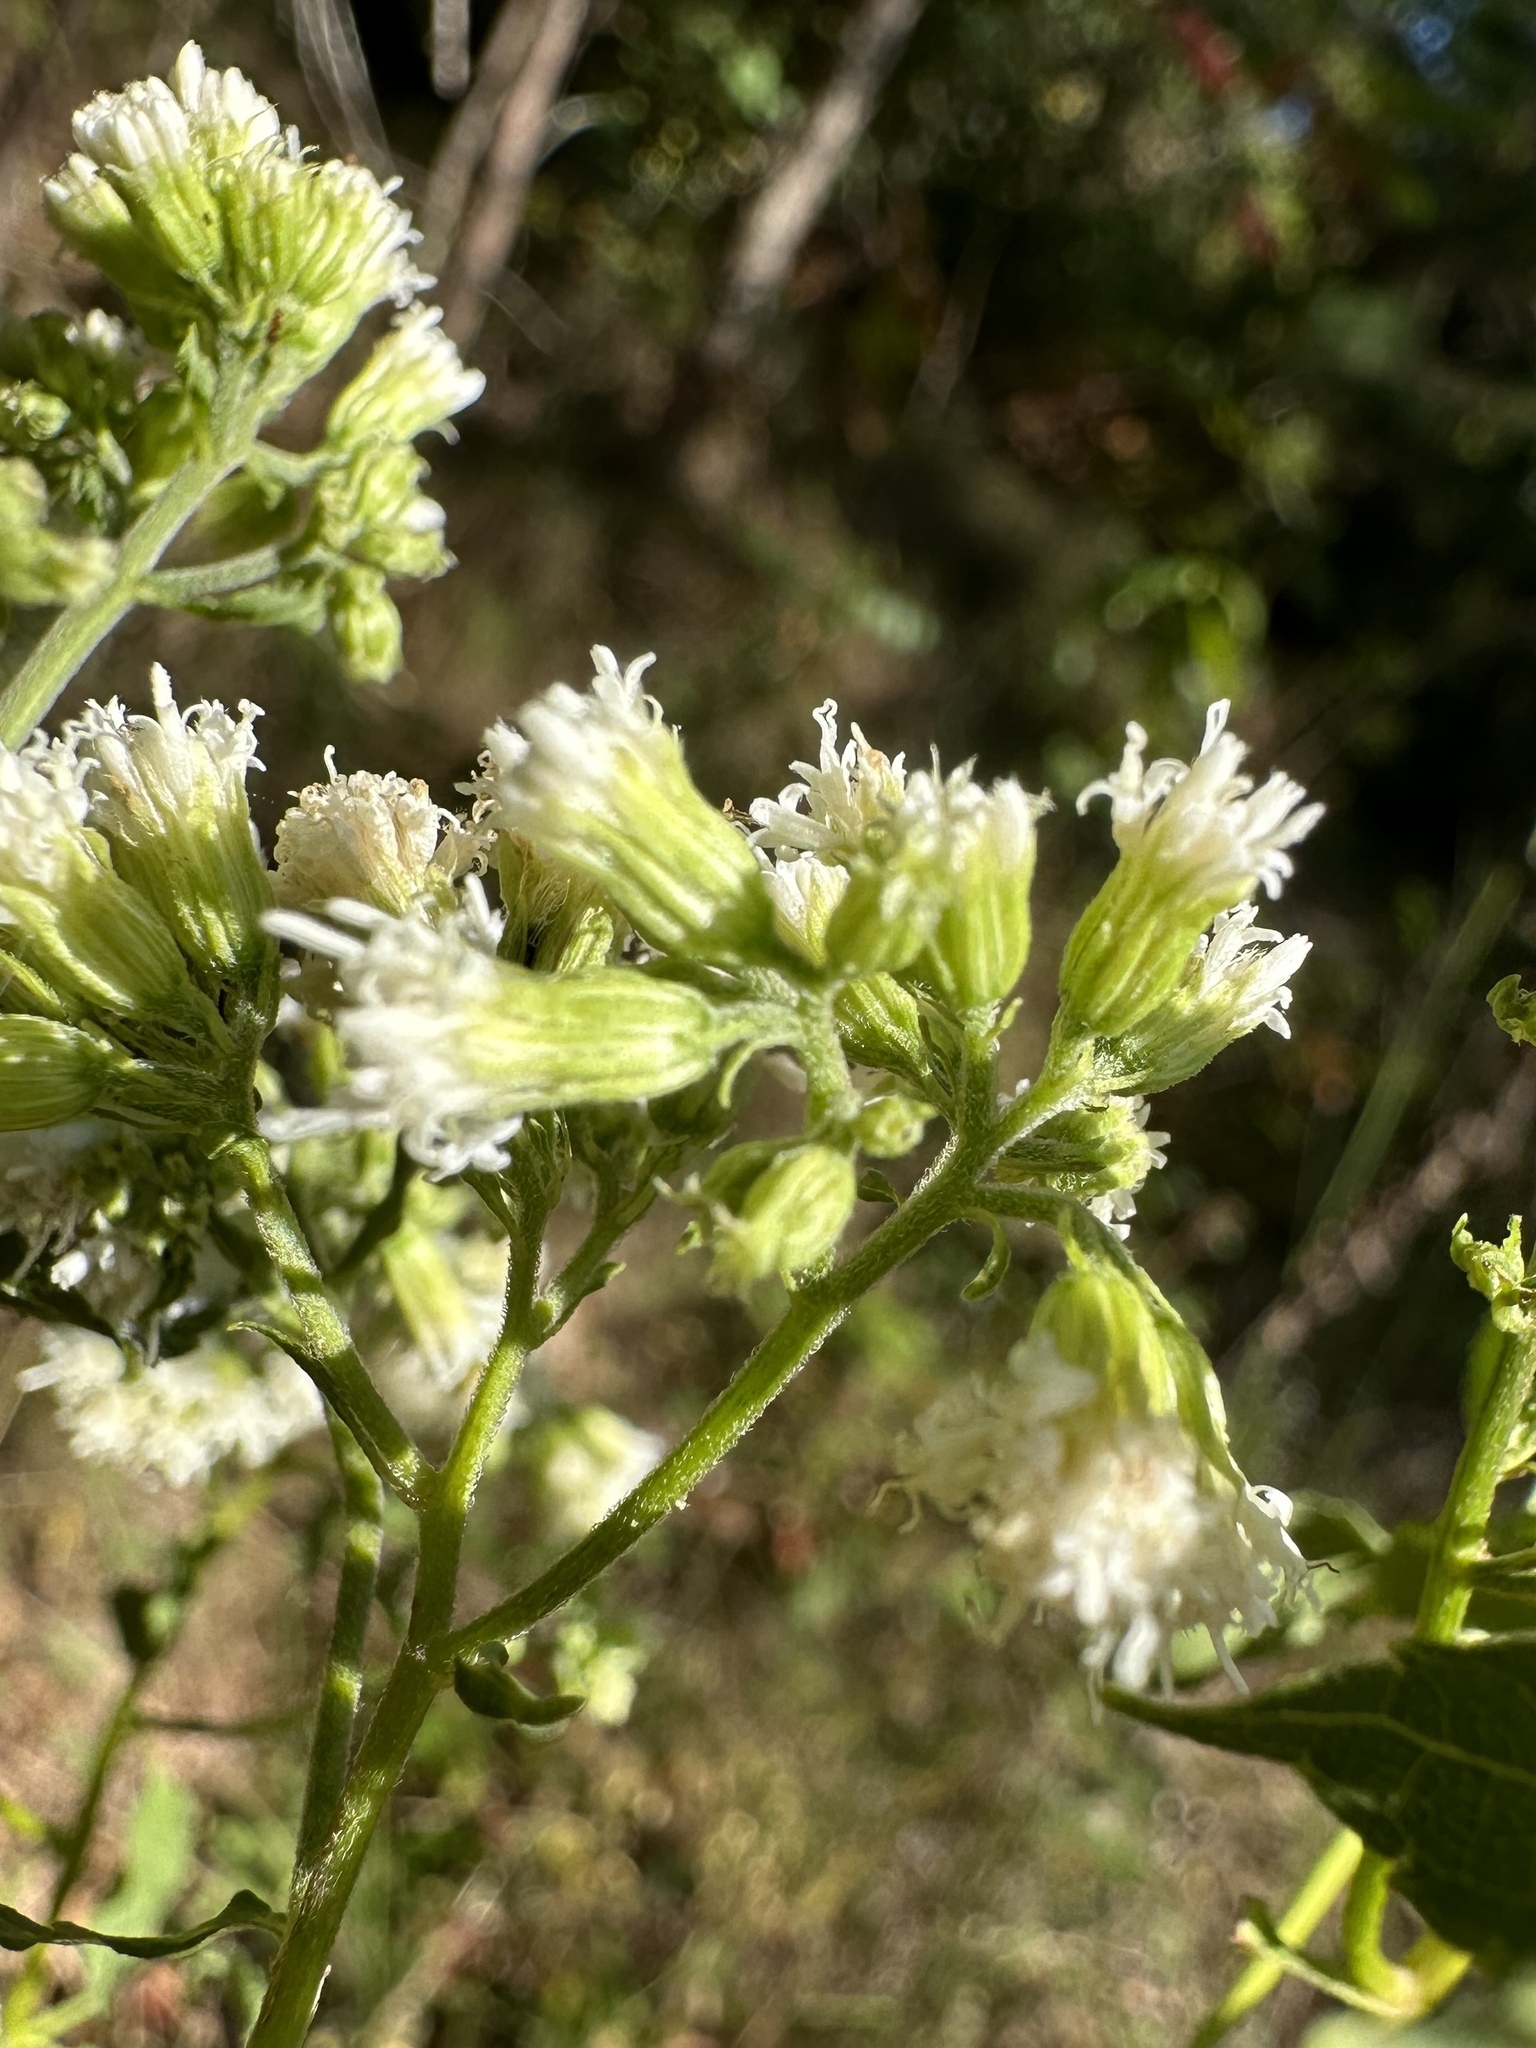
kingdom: Plantae
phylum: Tracheophyta
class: Magnoliopsida
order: Asterales
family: Asteraceae
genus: Ageratina
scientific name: Ageratina altissima
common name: White snakeroot
